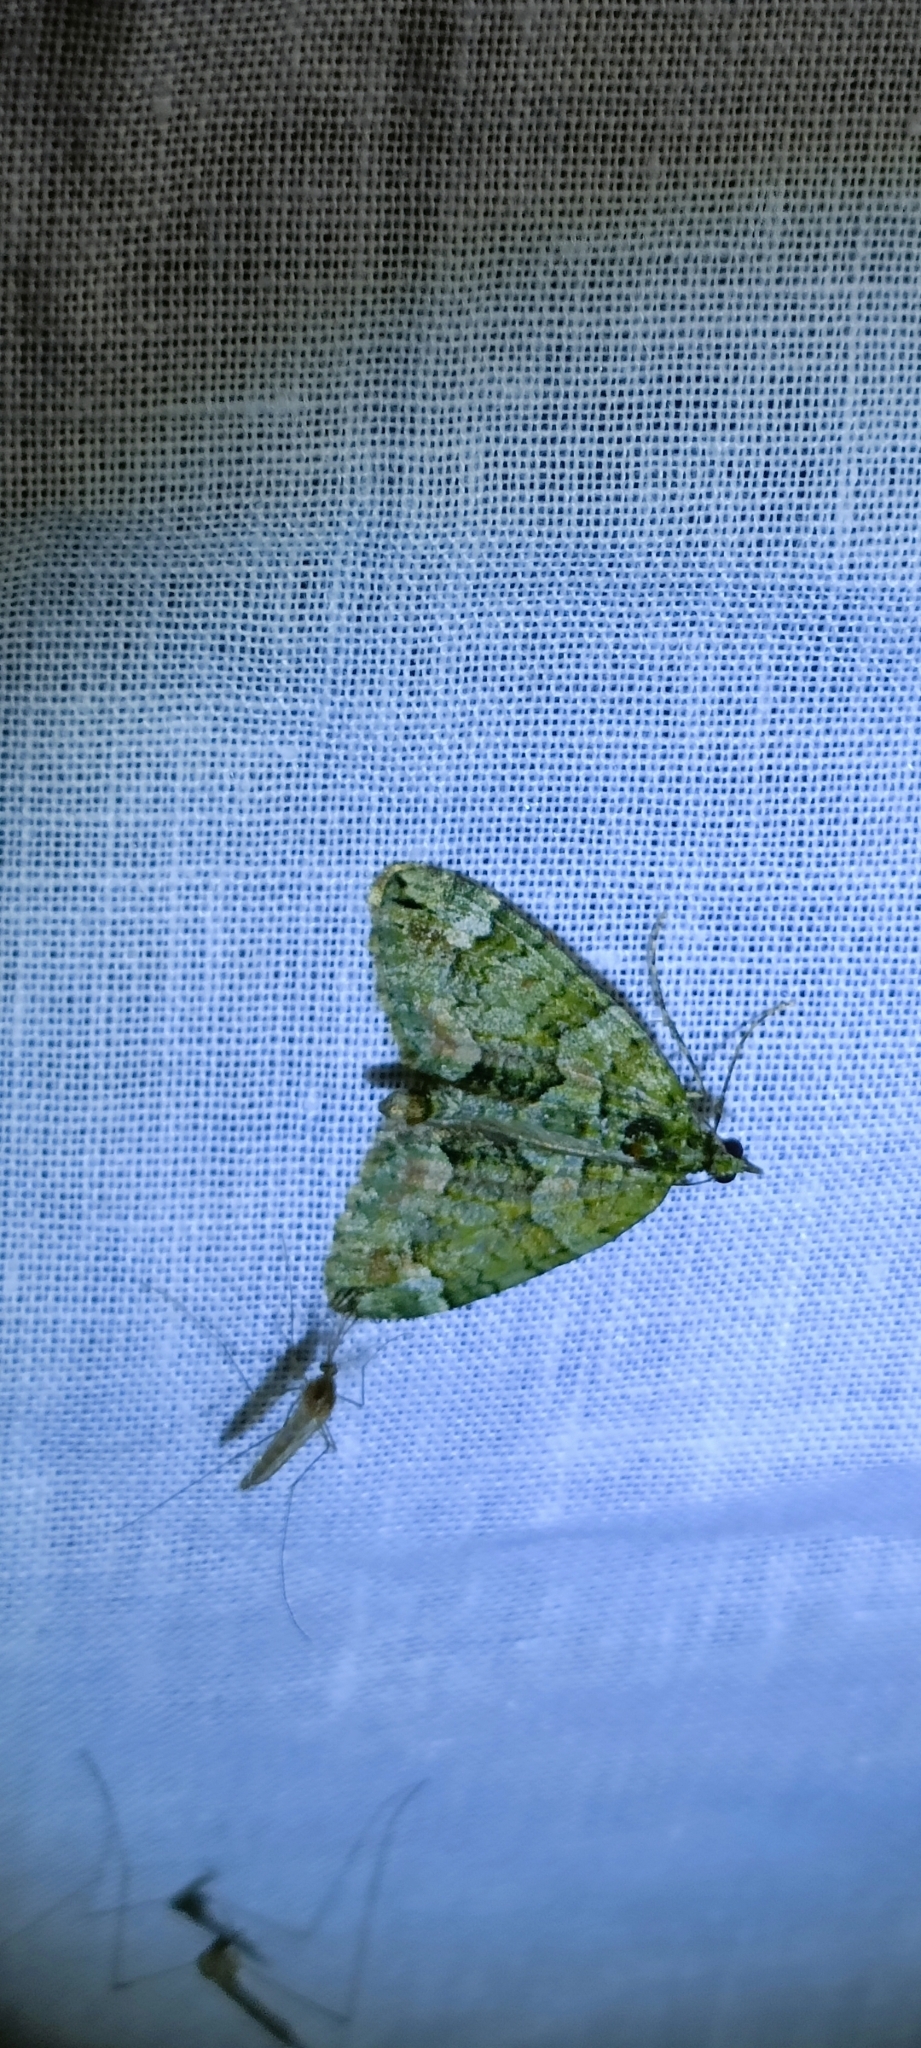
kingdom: Animalia
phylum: Arthropoda
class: Insecta
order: Lepidoptera
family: Geometridae
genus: Chloroclysta
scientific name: Chloroclysta siterata
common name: Red-green carpet
